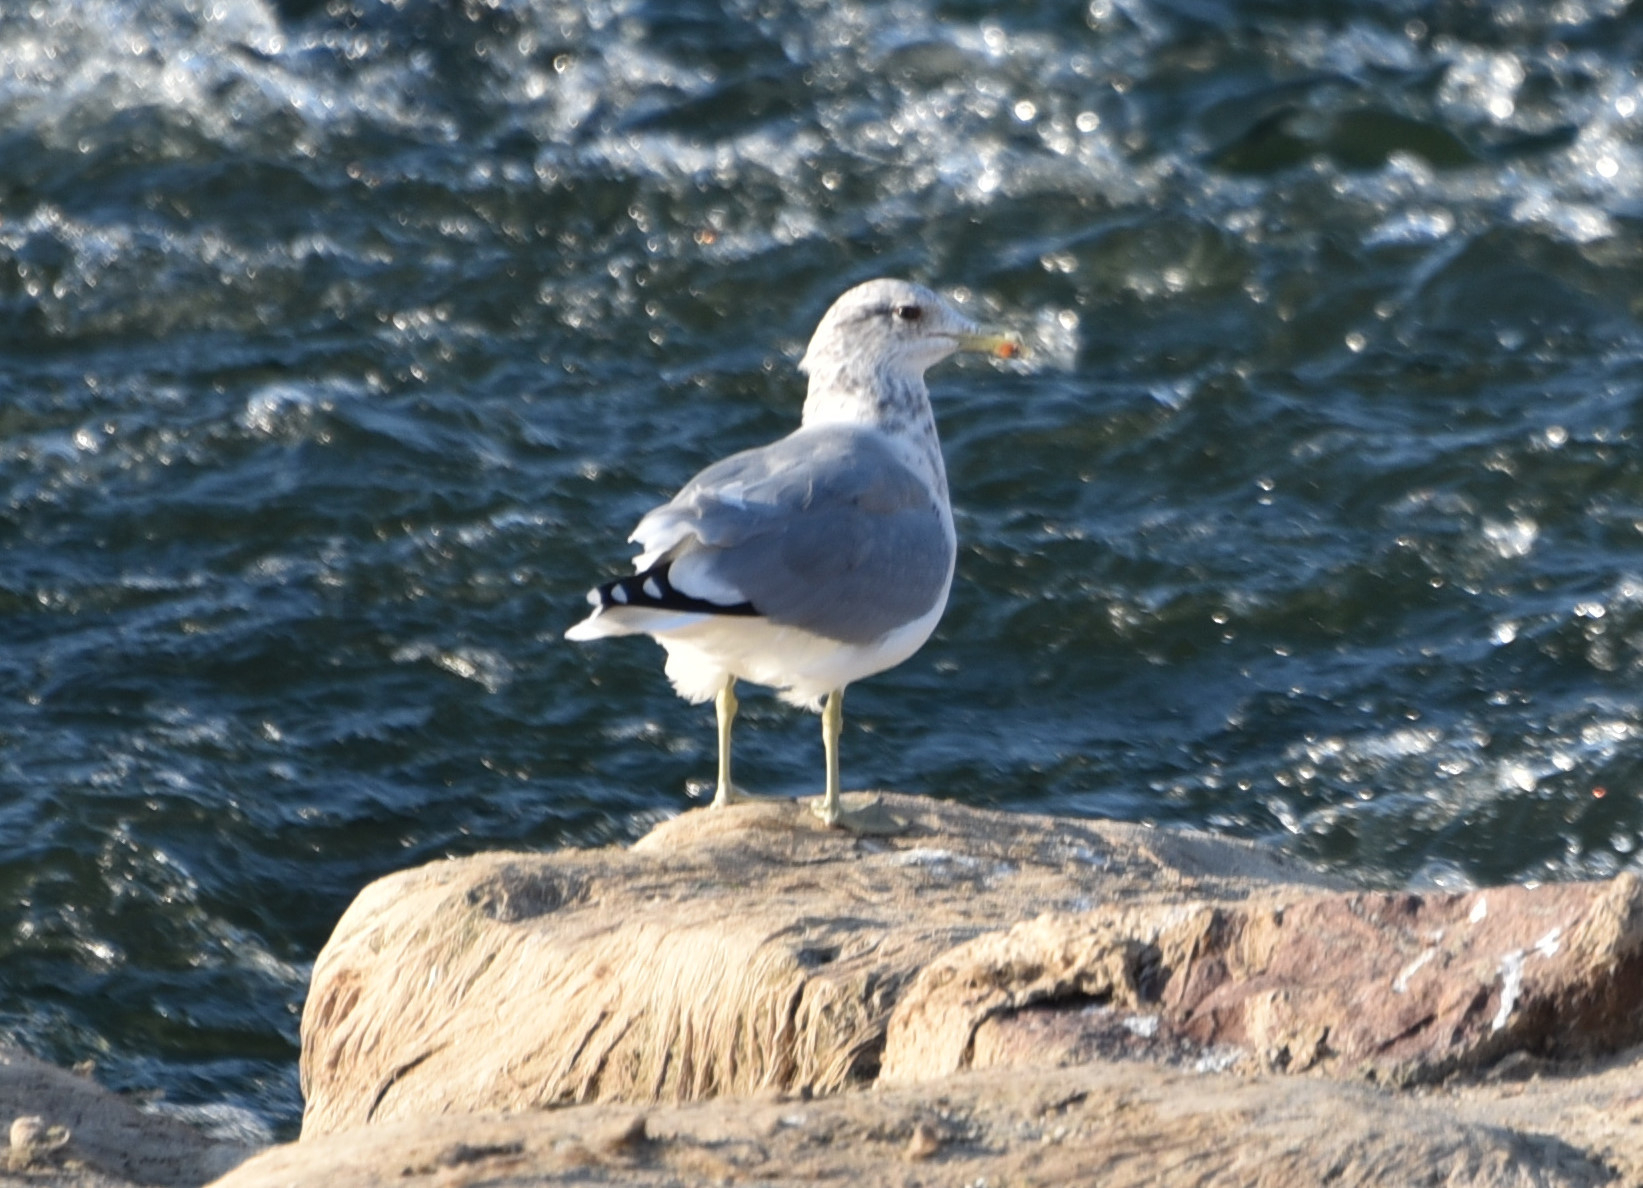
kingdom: Animalia
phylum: Chordata
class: Aves
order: Charadriiformes
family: Laridae
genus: Larus
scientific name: Larus californicus
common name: California gull
